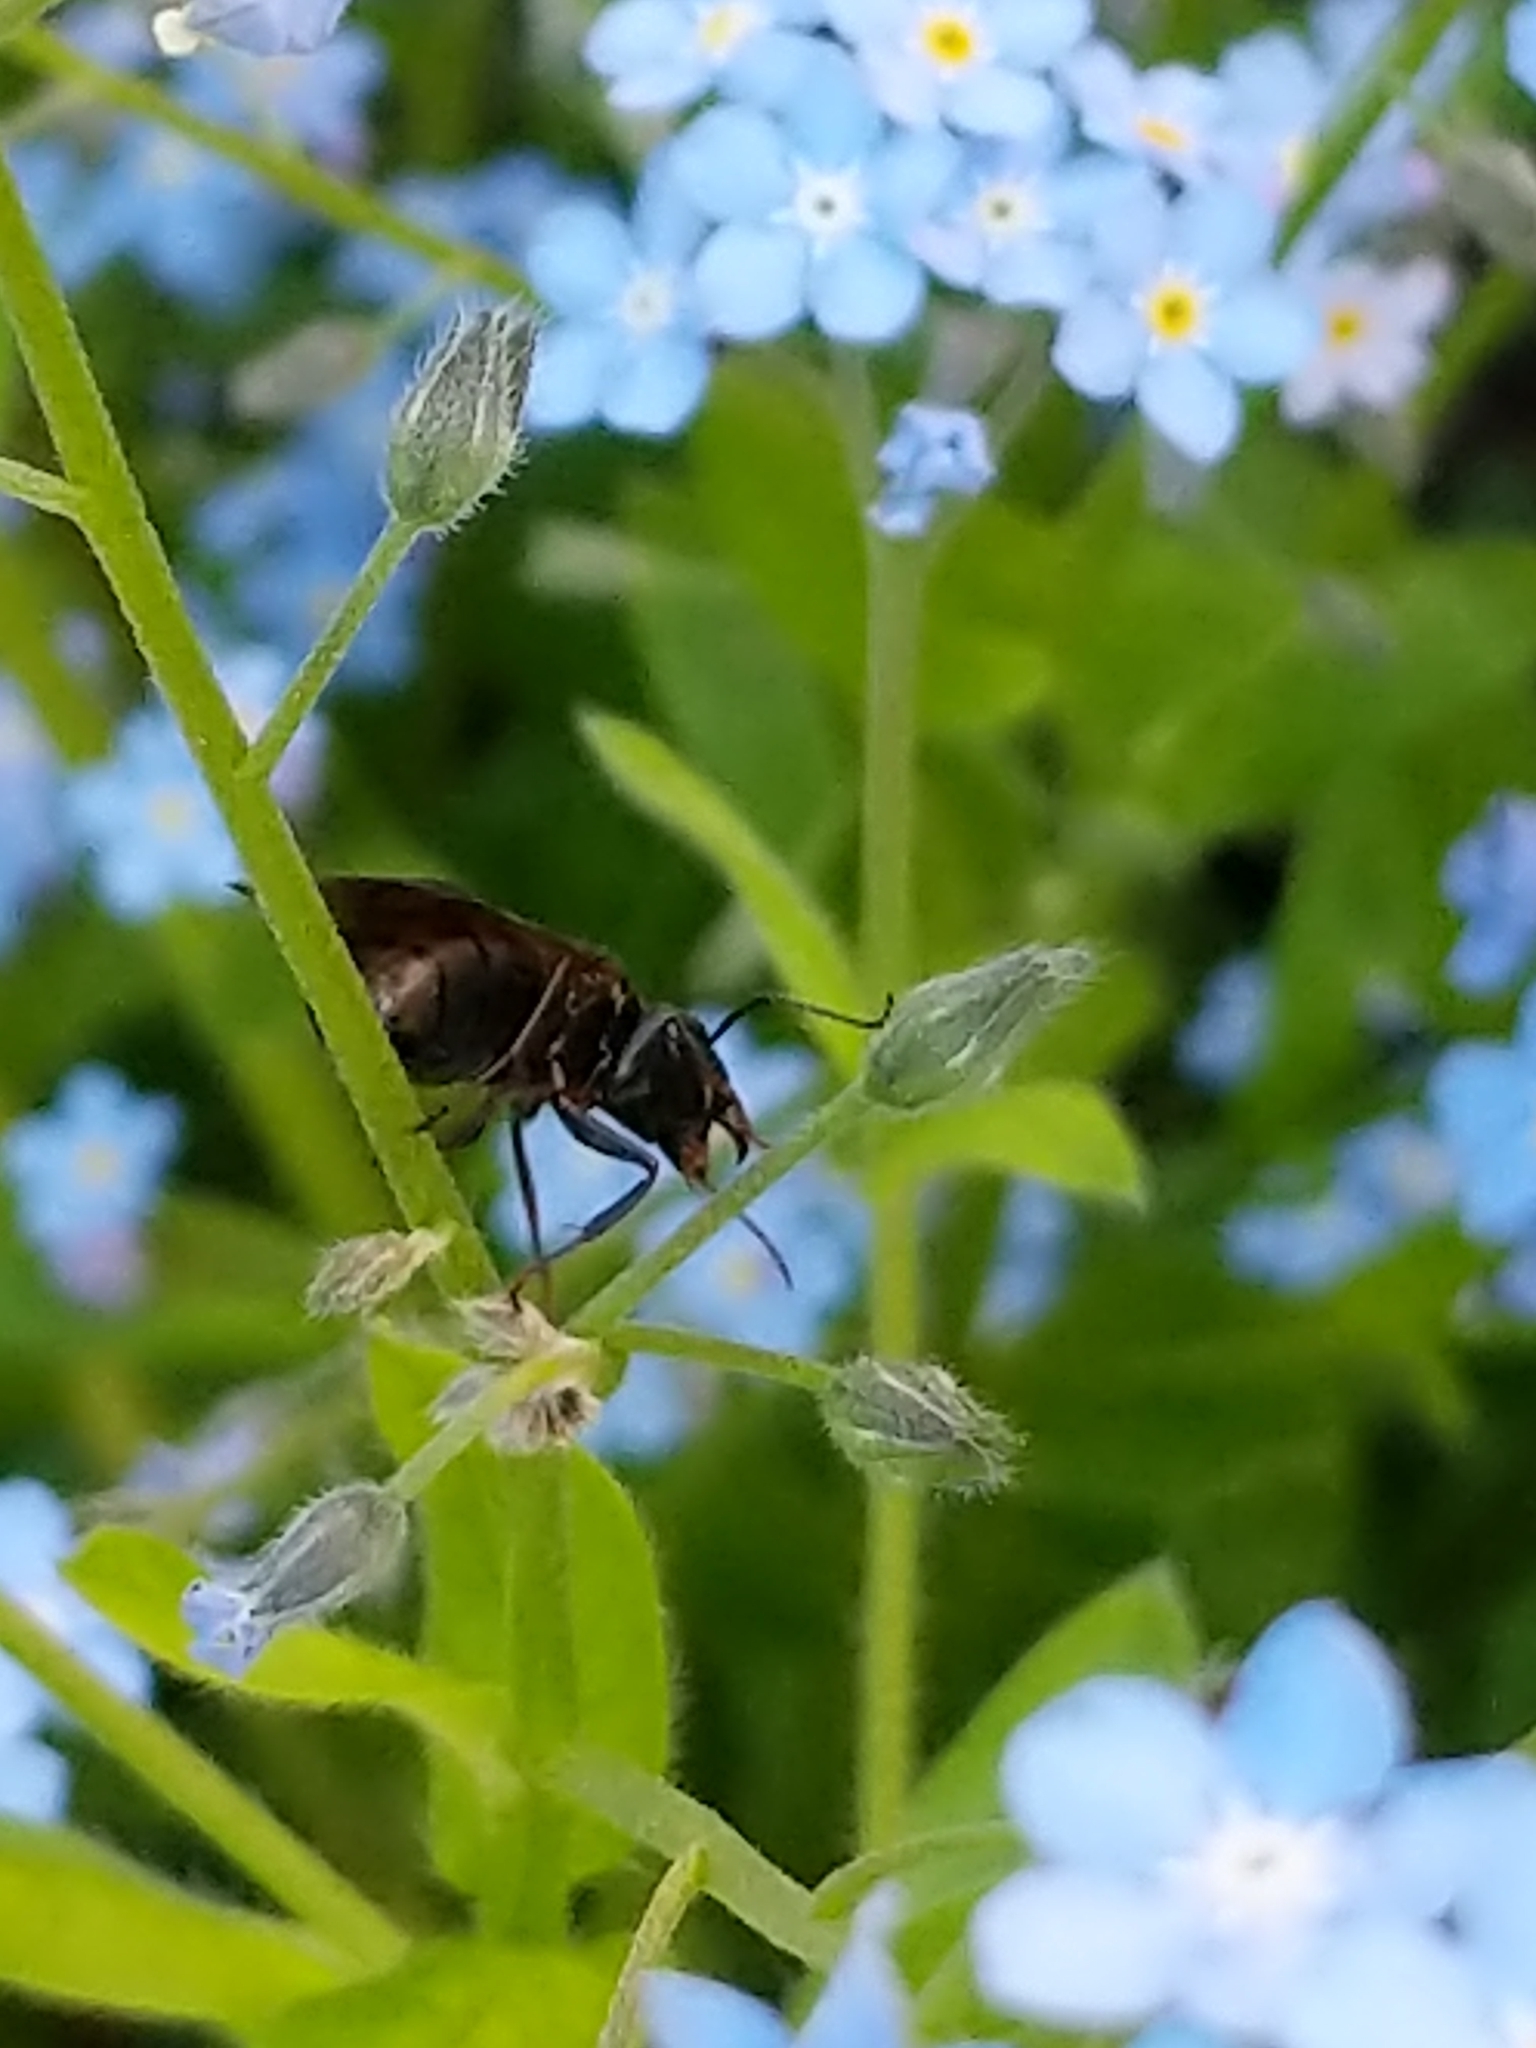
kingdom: Animalia
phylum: Arthropoda
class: Insecta
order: Hymenoptera
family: Formicidae
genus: Camponotus
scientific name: Camponotus pennsylvanicus
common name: Black carpenter ant
